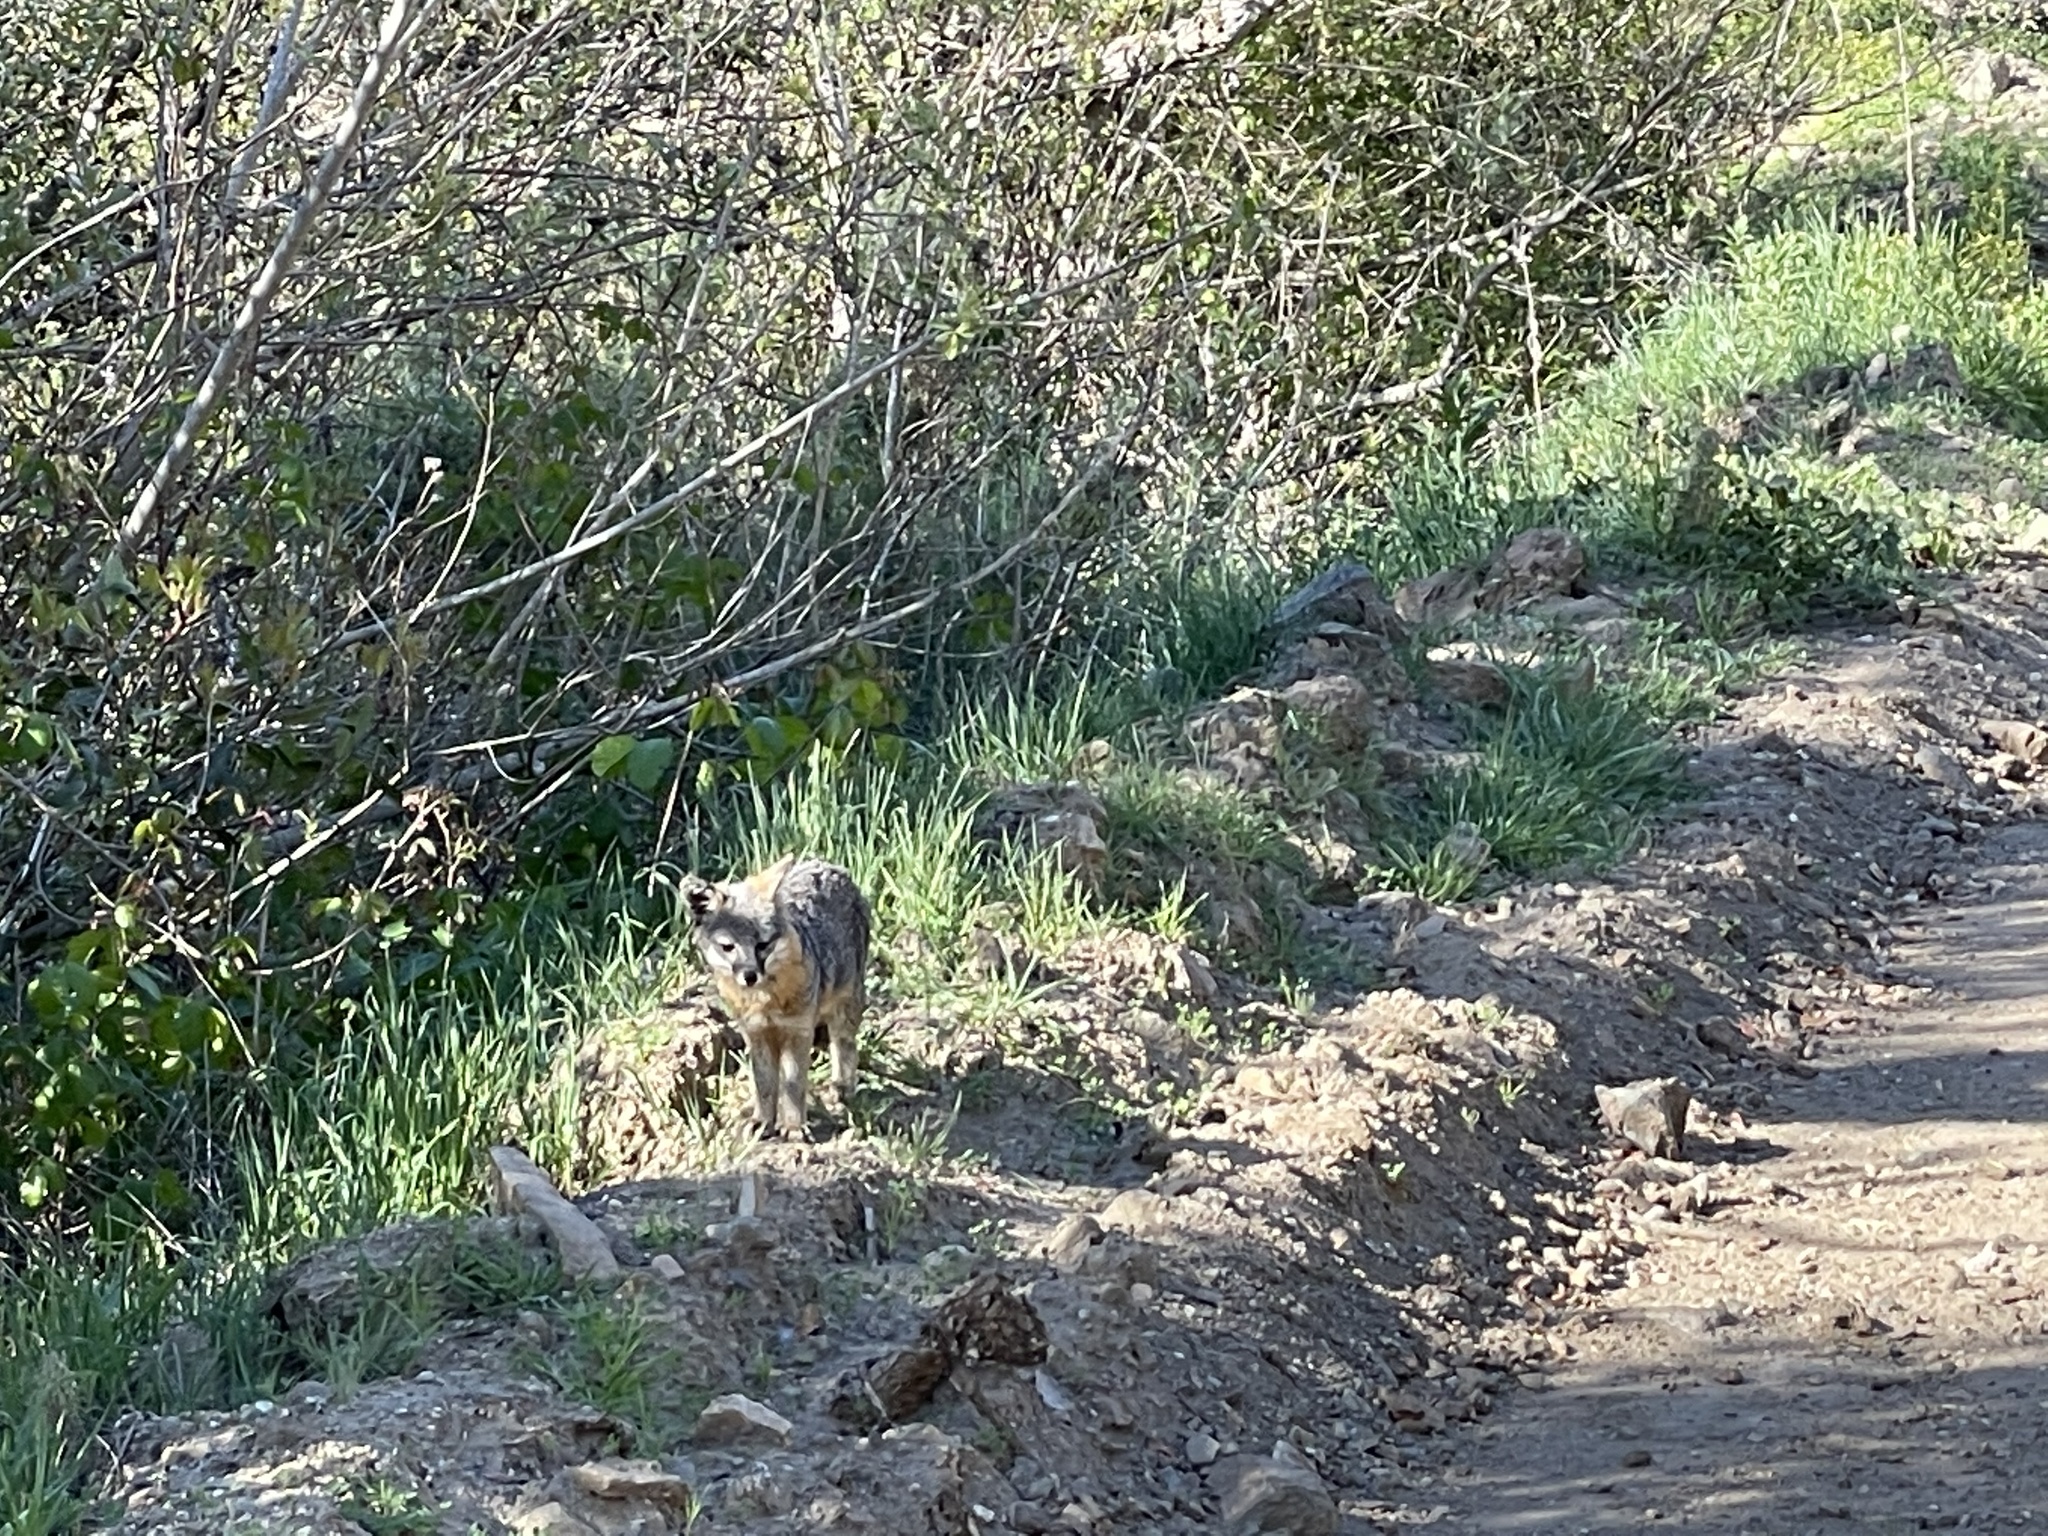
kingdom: Animalia
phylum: Chordata
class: Mammalia
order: Carnivora
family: Canidae
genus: Urocyon
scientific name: Urocyon littoralis
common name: Island gray fox
